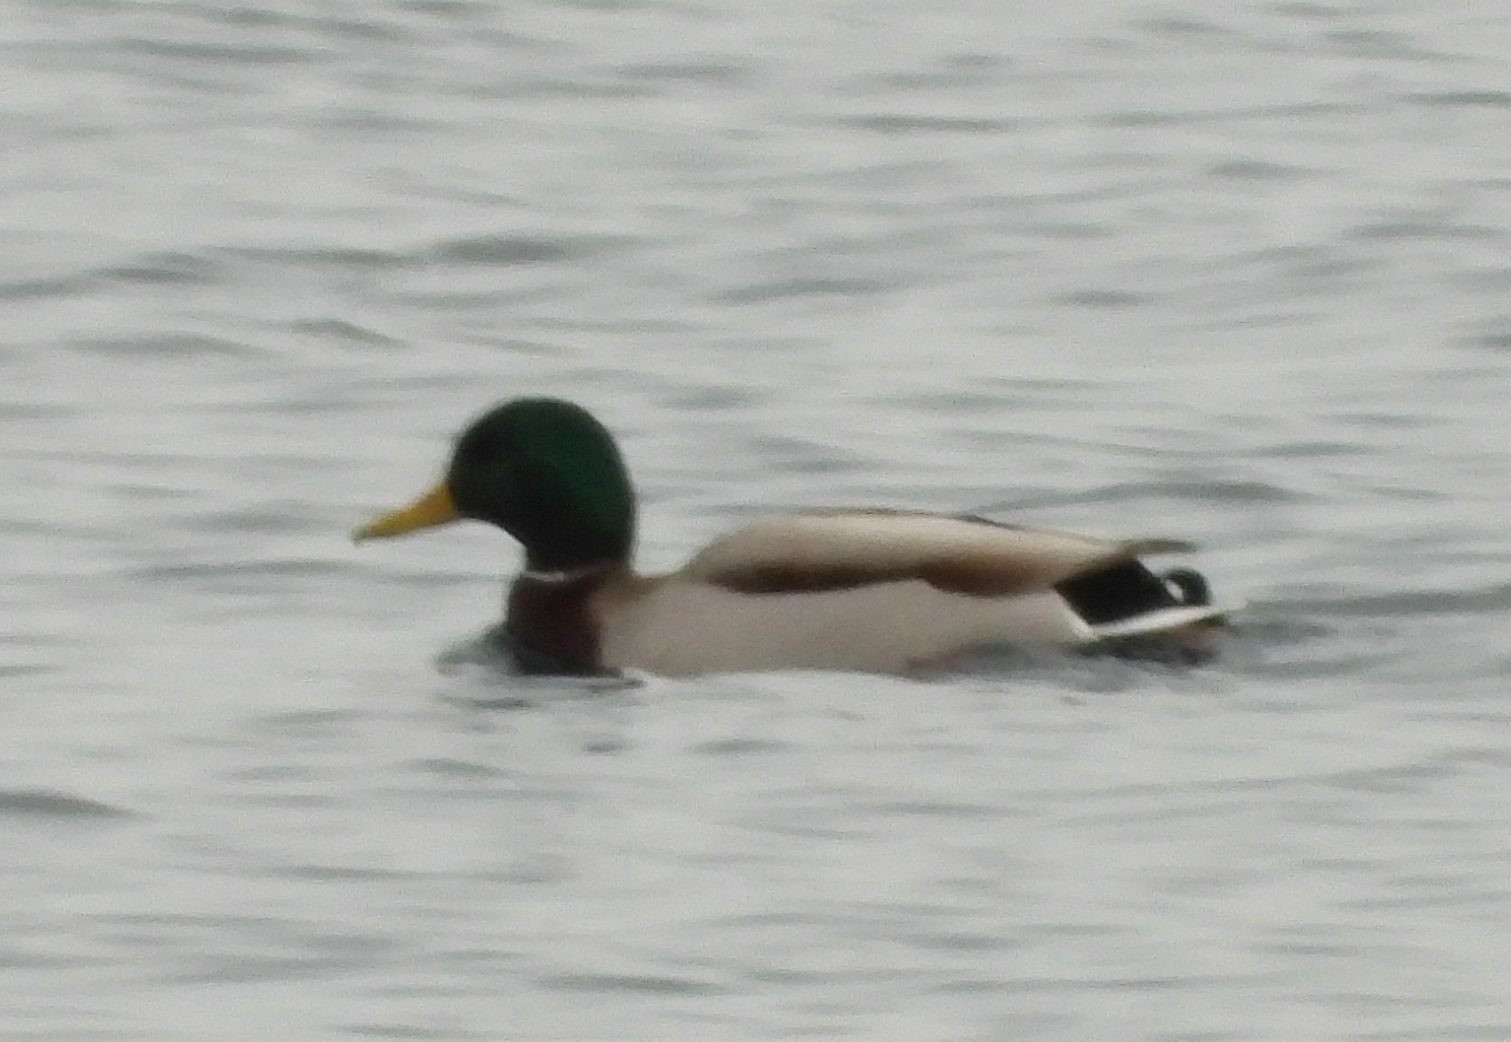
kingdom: Animalia
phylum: Chordata
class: Aves
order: Anseriformes
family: Anatidae
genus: Anas
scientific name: Anas platyrhynchos
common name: Mallard
